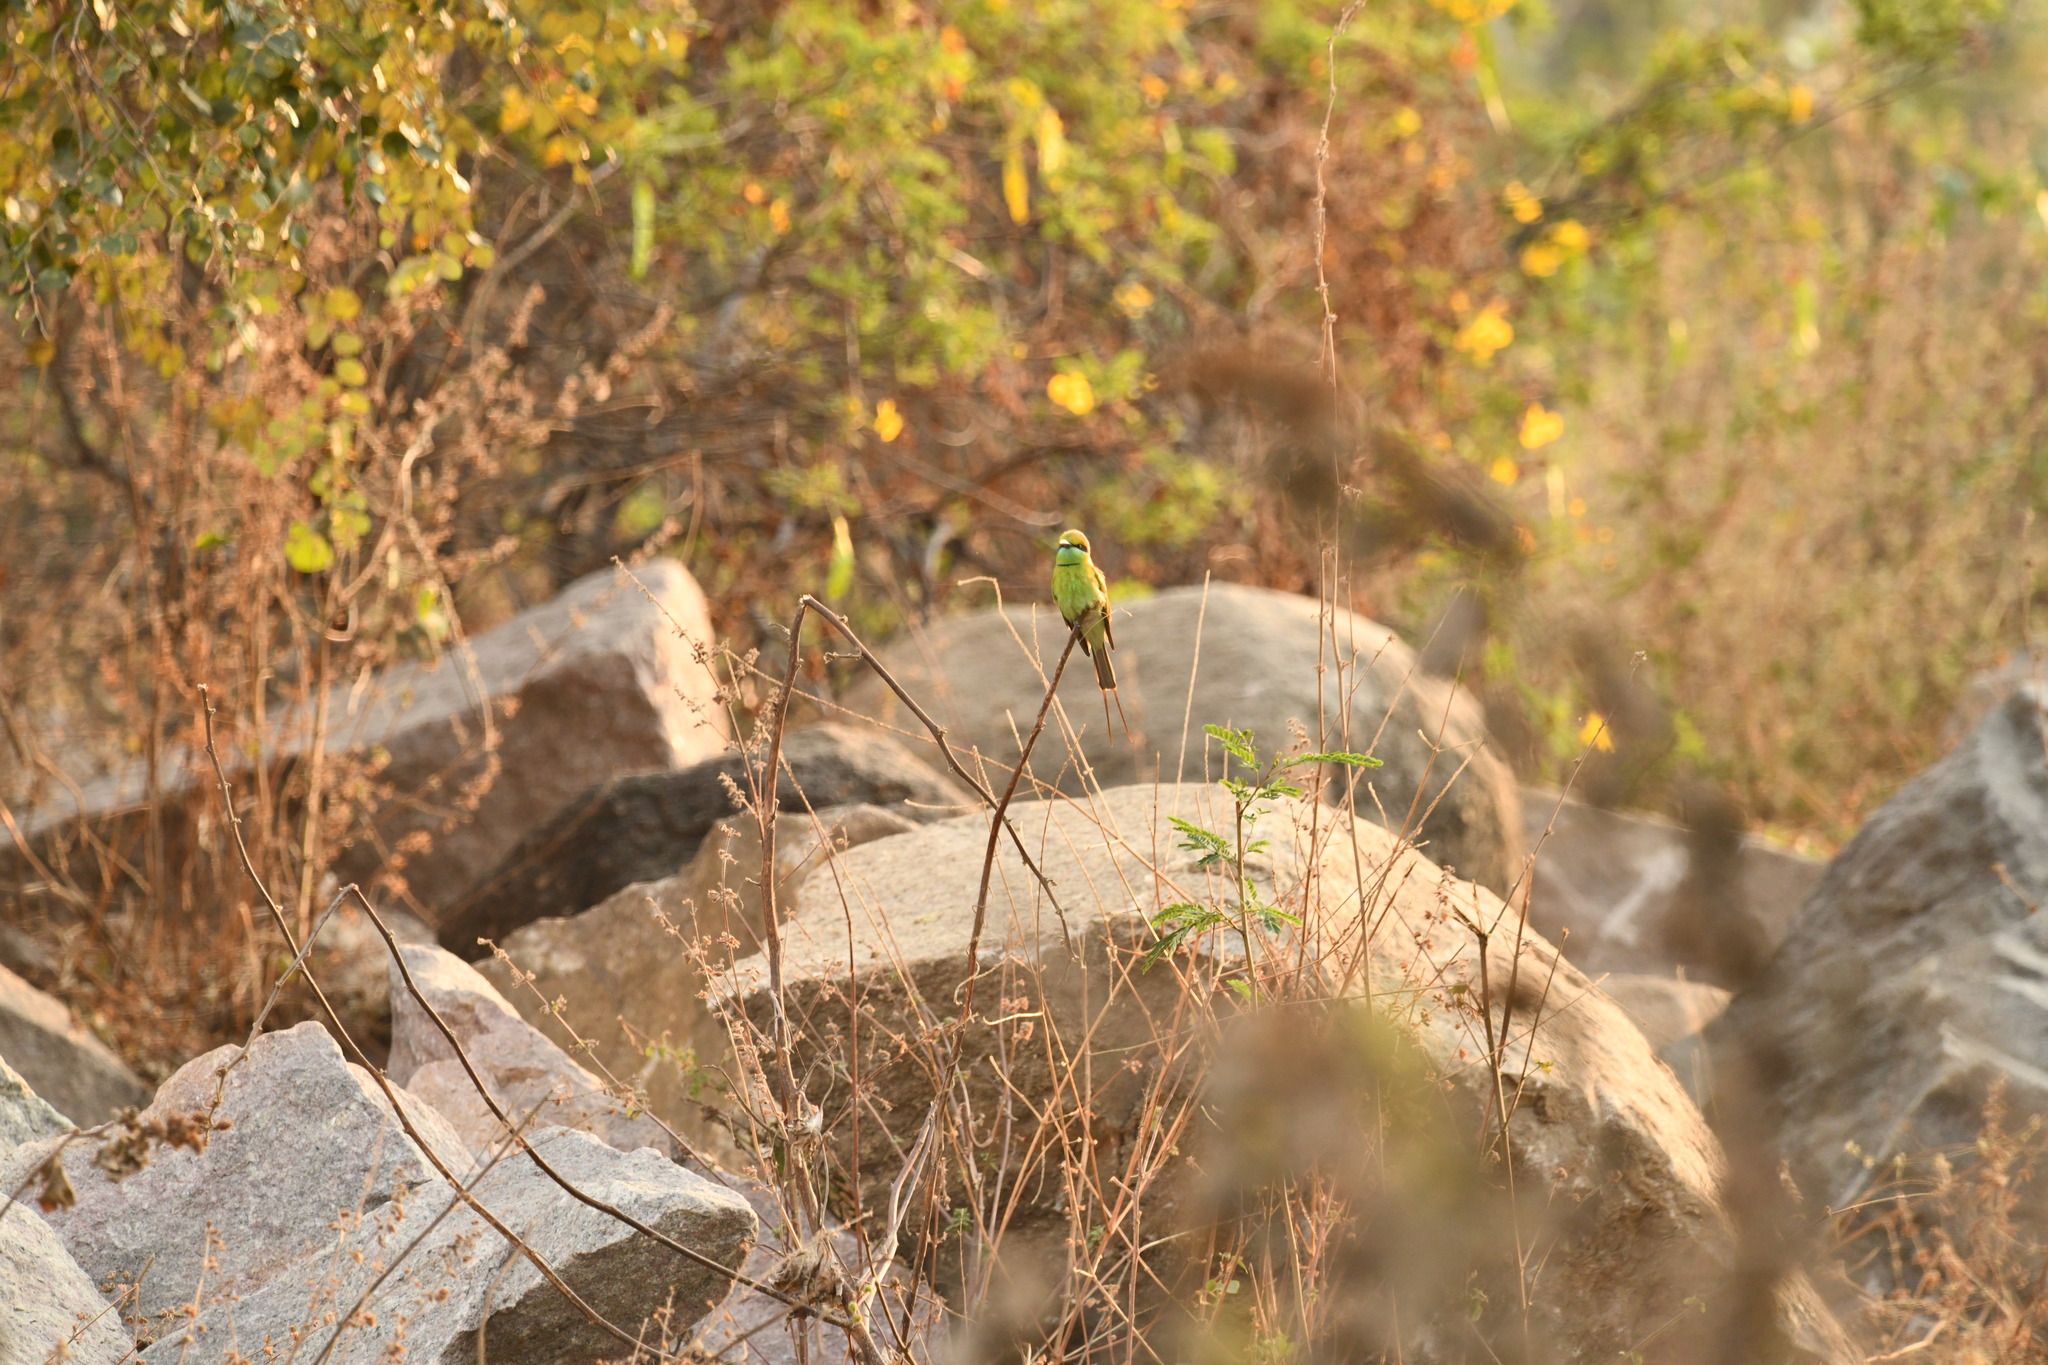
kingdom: Animalia
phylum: Chordata
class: Aves
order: Coraciiformes
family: Meropidae
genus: Merops
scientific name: Merops orientalis
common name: Green bee-eater
